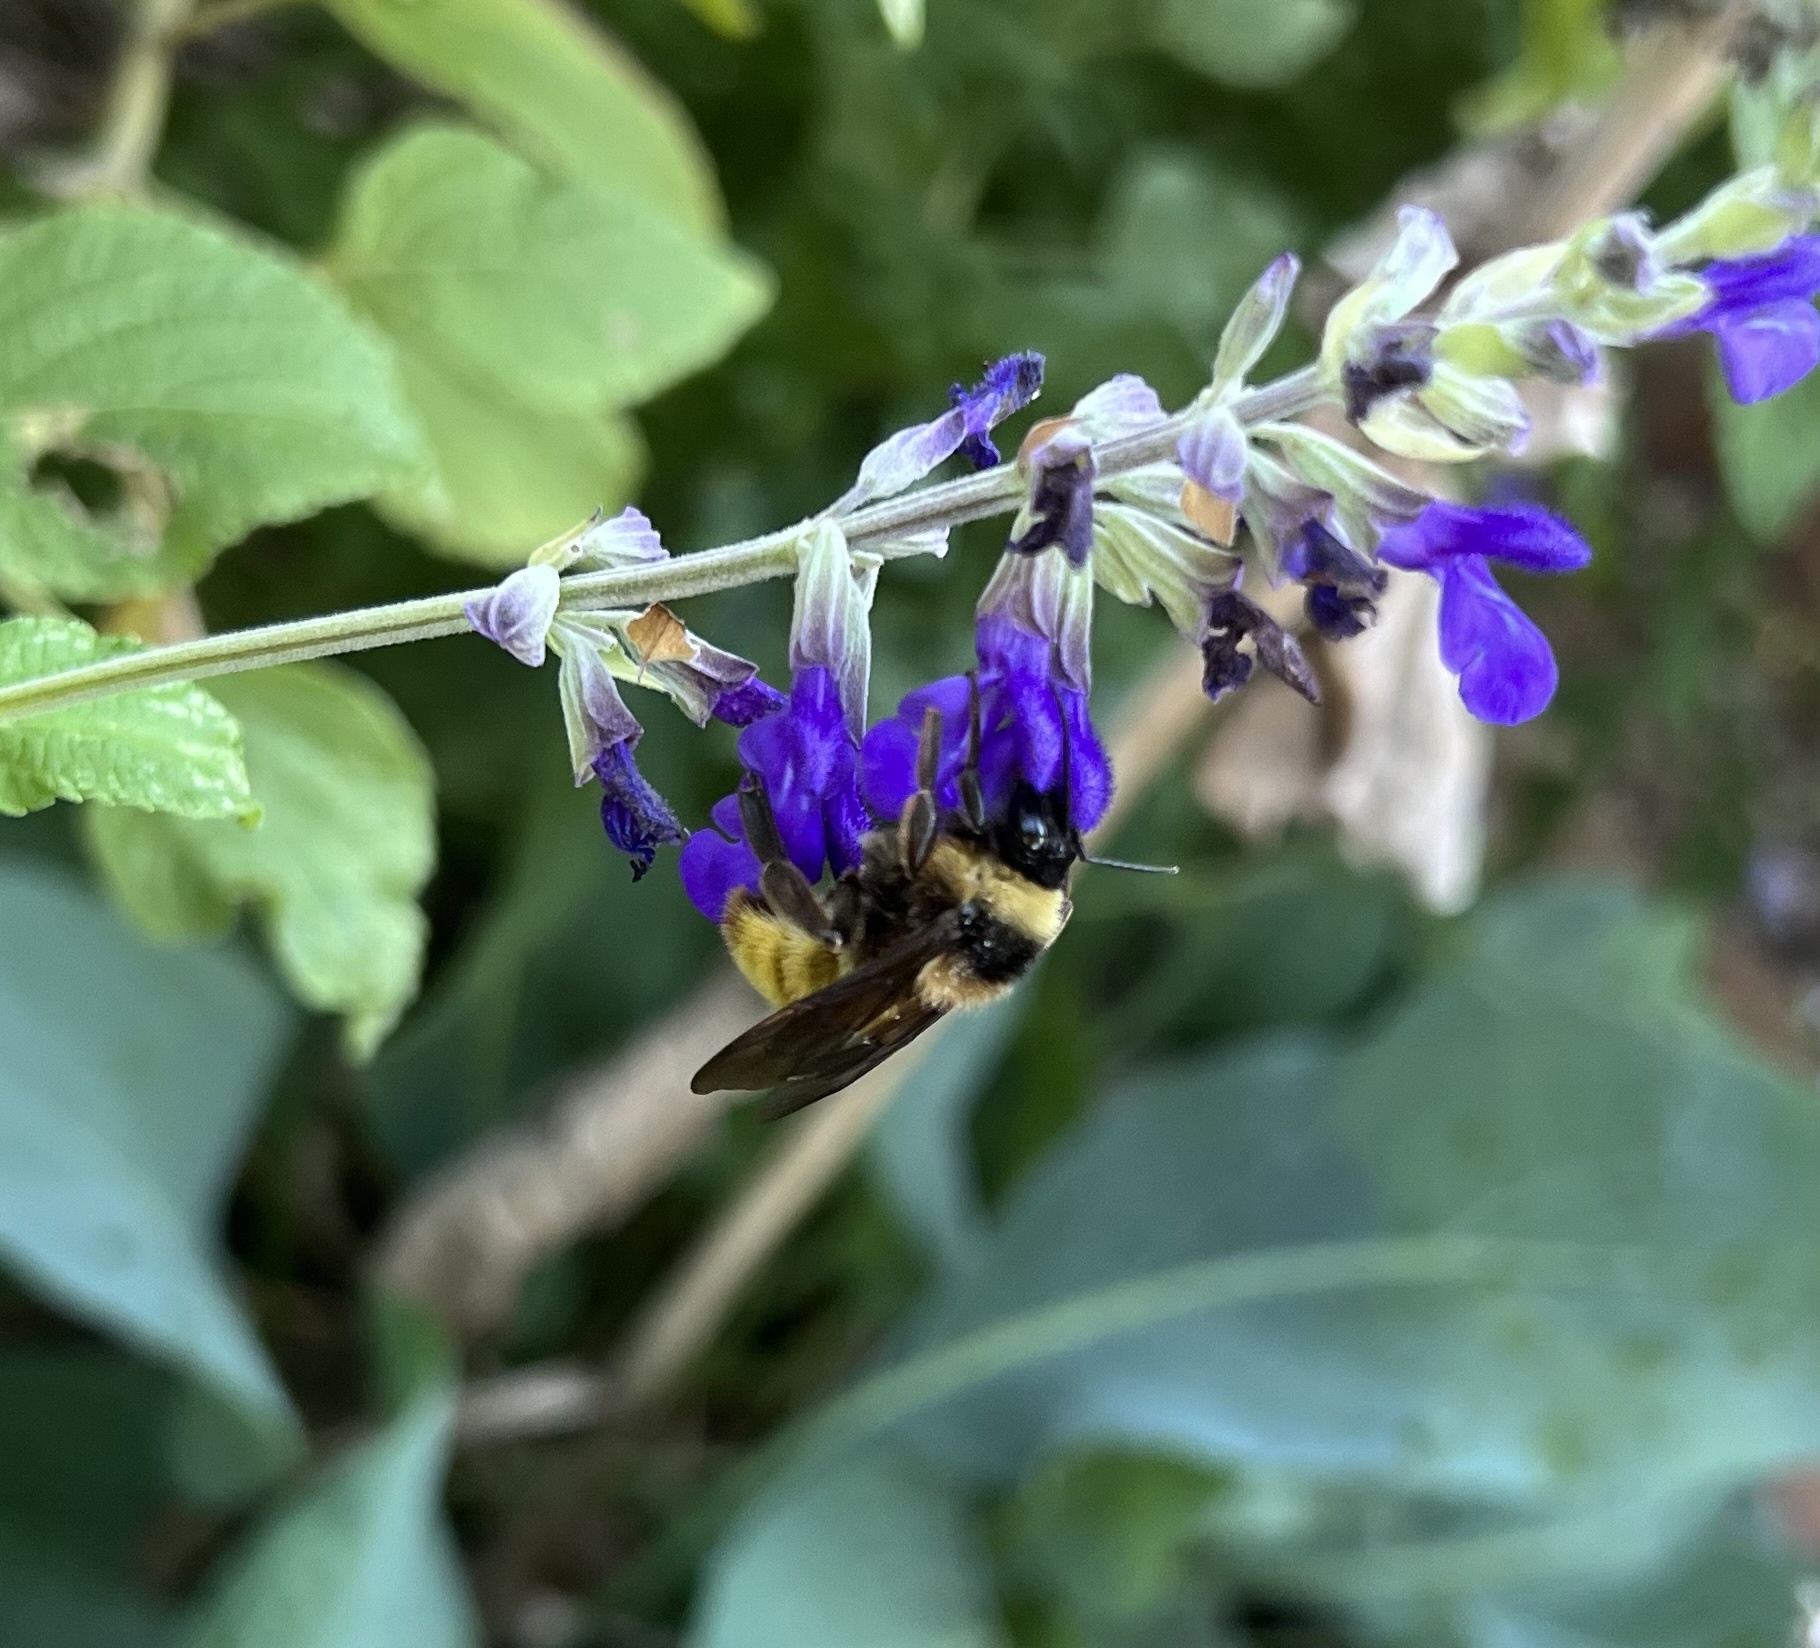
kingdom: Animalia
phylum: Arthropoda
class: Insecta
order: Hymenoptera
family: Apidae
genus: Bombus
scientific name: Bombus pensylvanicus
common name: Bumble bee
